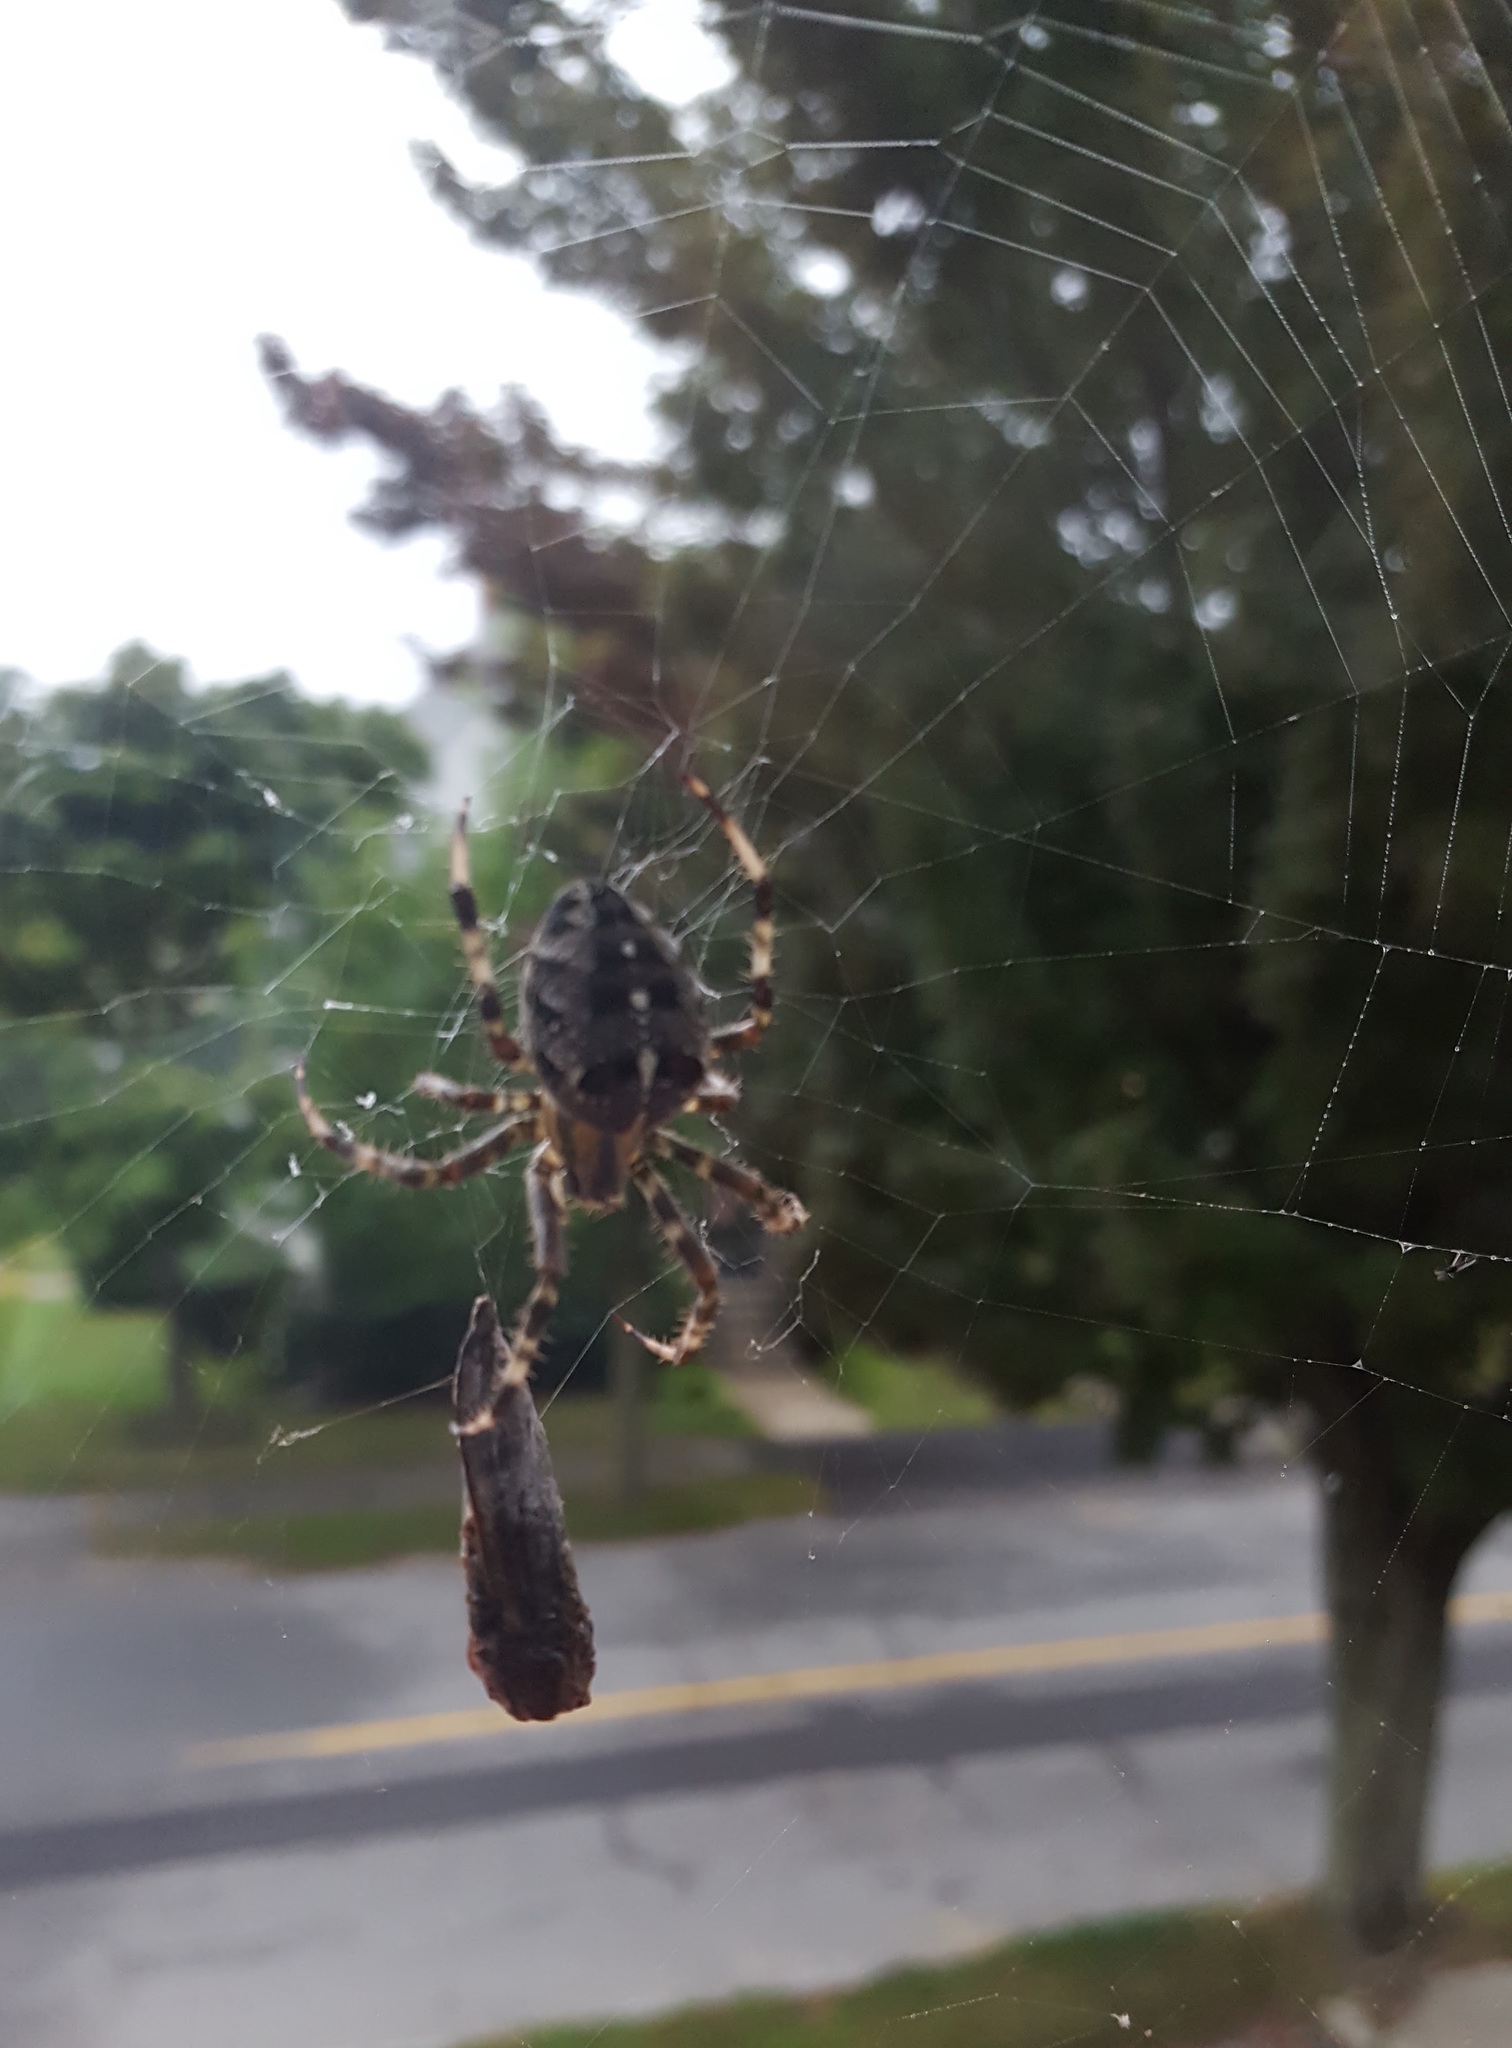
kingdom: Animalia
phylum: Arthropoda
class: Arachnida
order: Araneae
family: Araneidae
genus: Araneus
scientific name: Araneus diadematus
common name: Cross orbweaver
